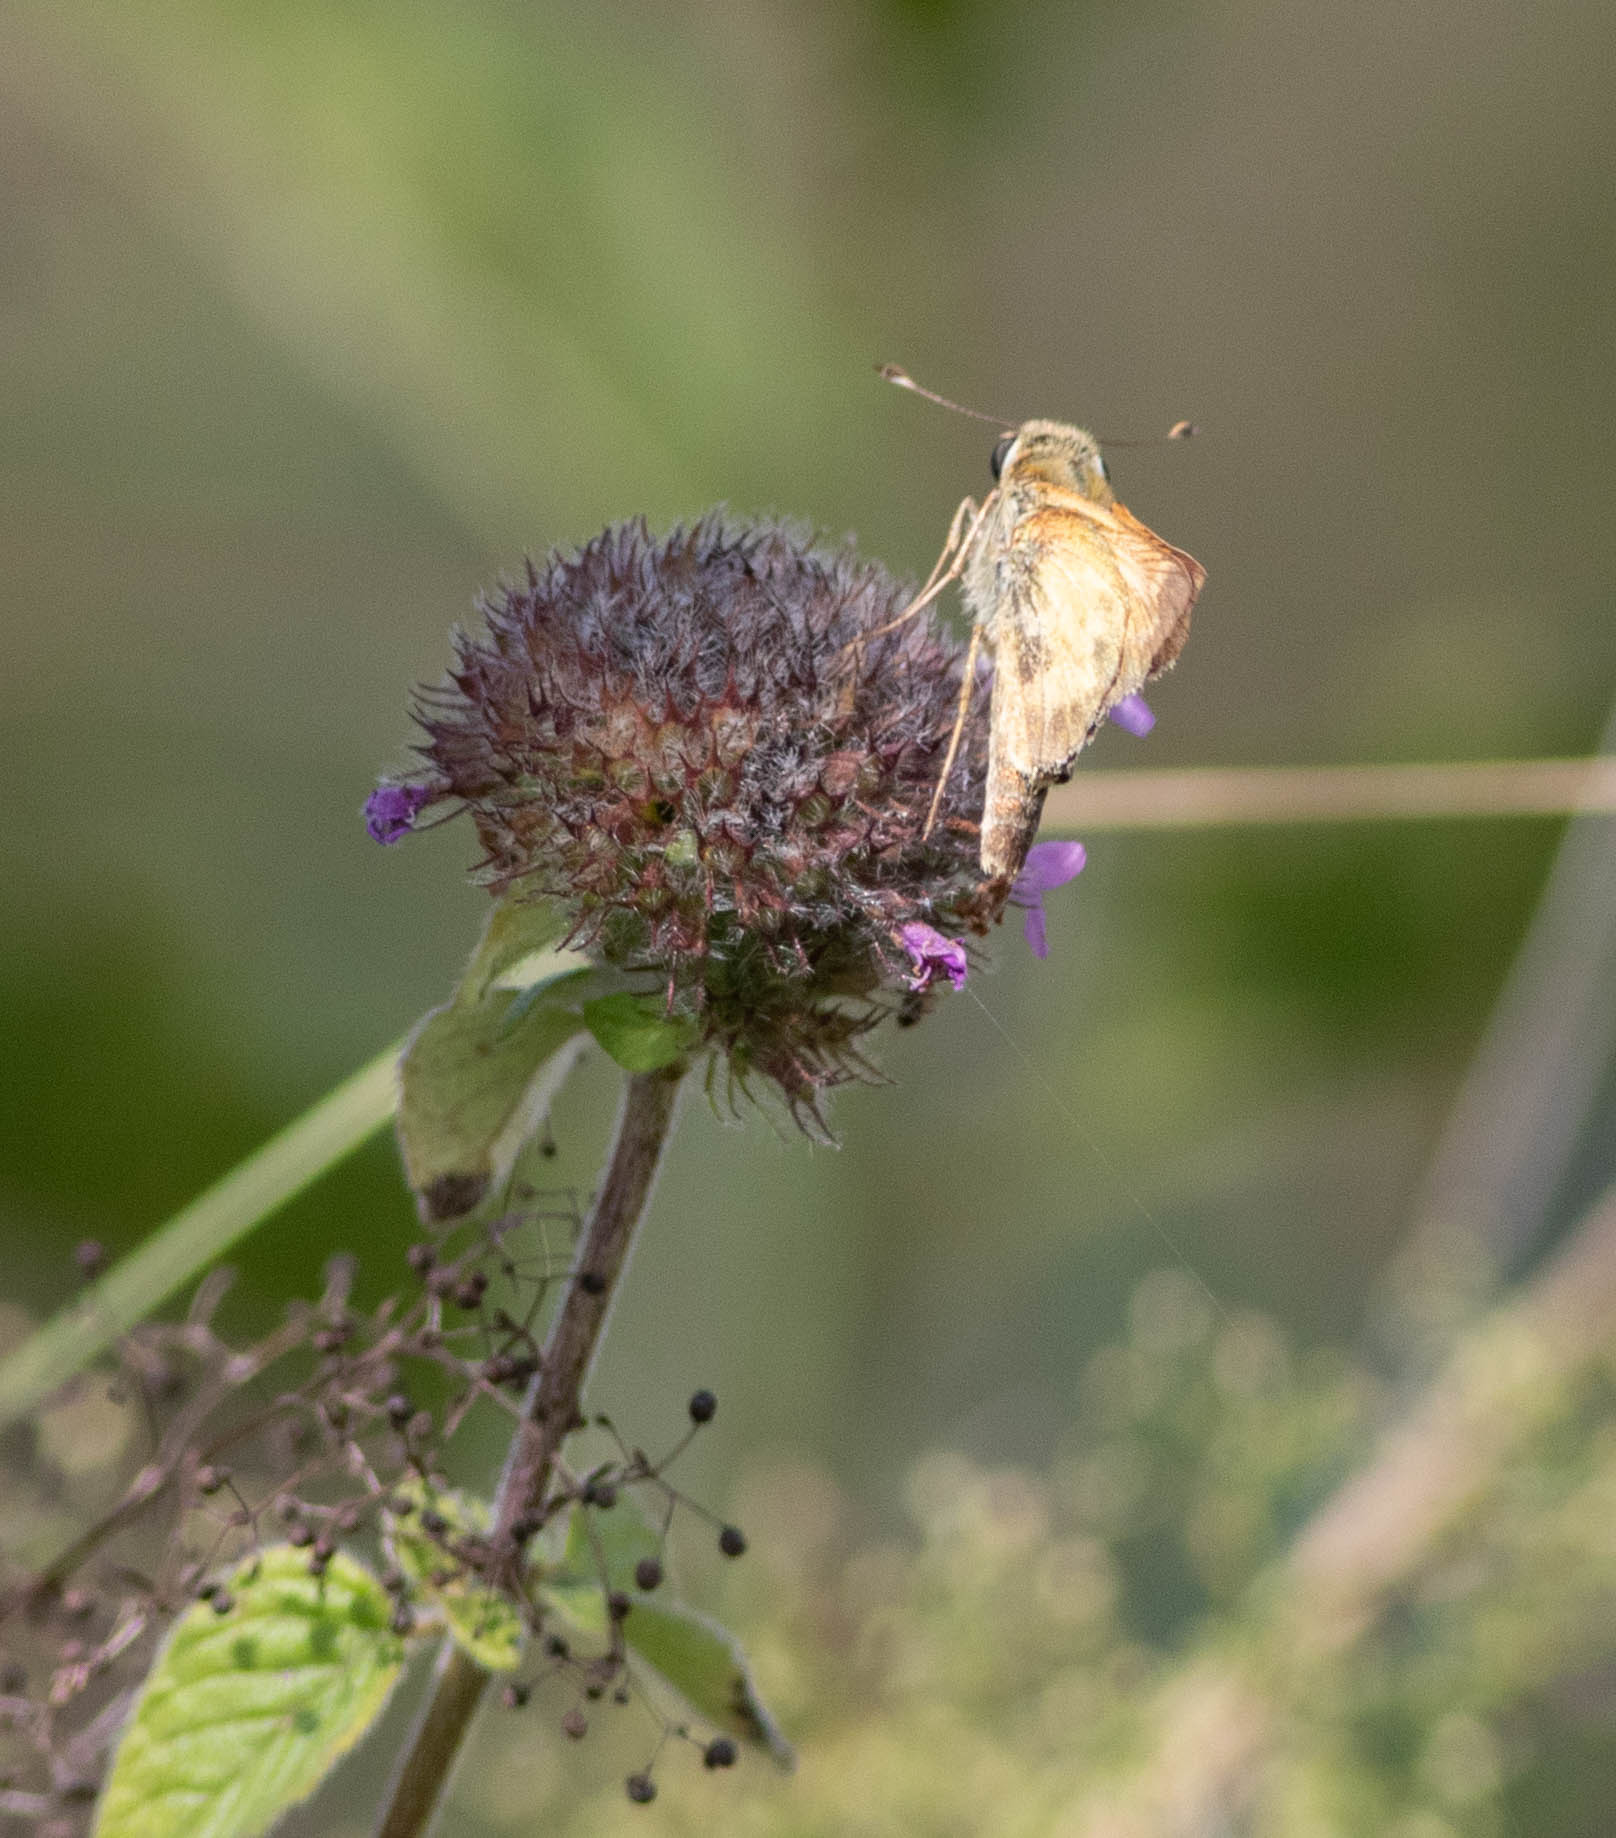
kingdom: Animalia
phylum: Arthropoda
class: Insecta
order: Lepidoptera
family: Hesperiidae
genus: Atalopedes
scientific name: Atalopedes
